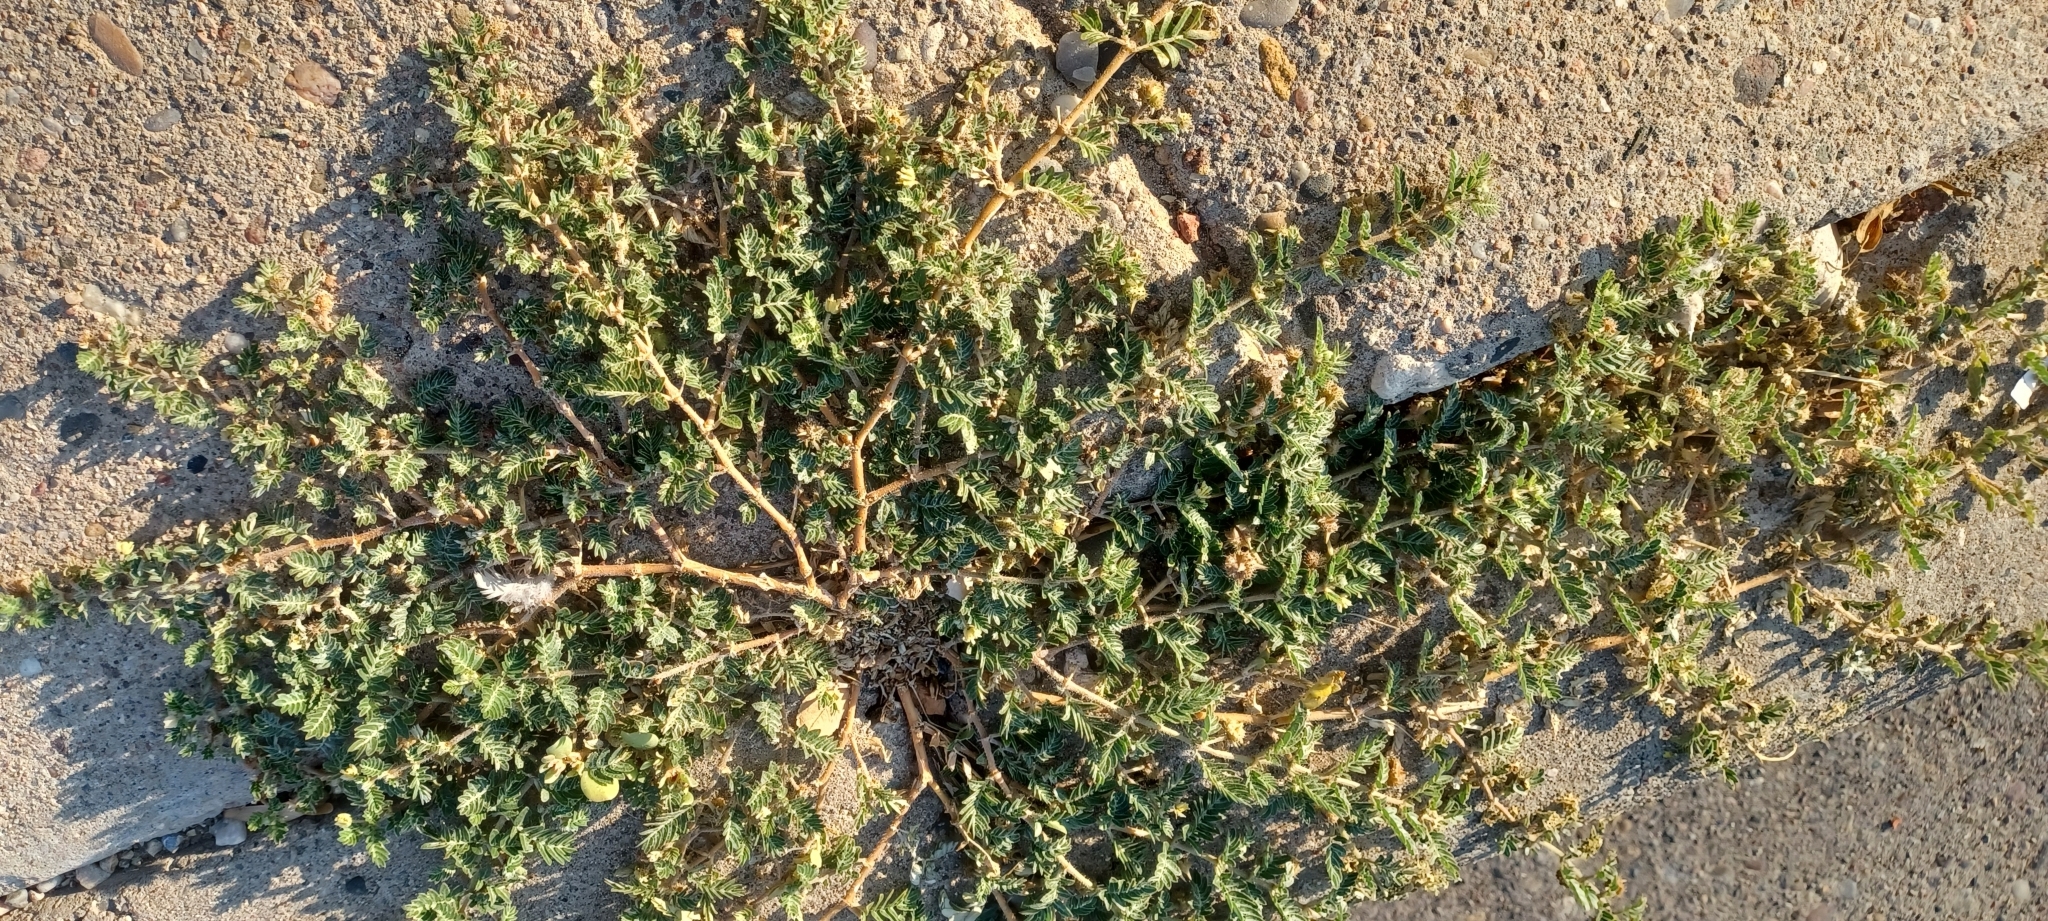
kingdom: Plantae
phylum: Tracheophyta
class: Magnoliopsida
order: Zygophyllales
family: Zygophyllaceae
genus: Tribulus
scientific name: Tribulus terrestris
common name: Puncturevine
